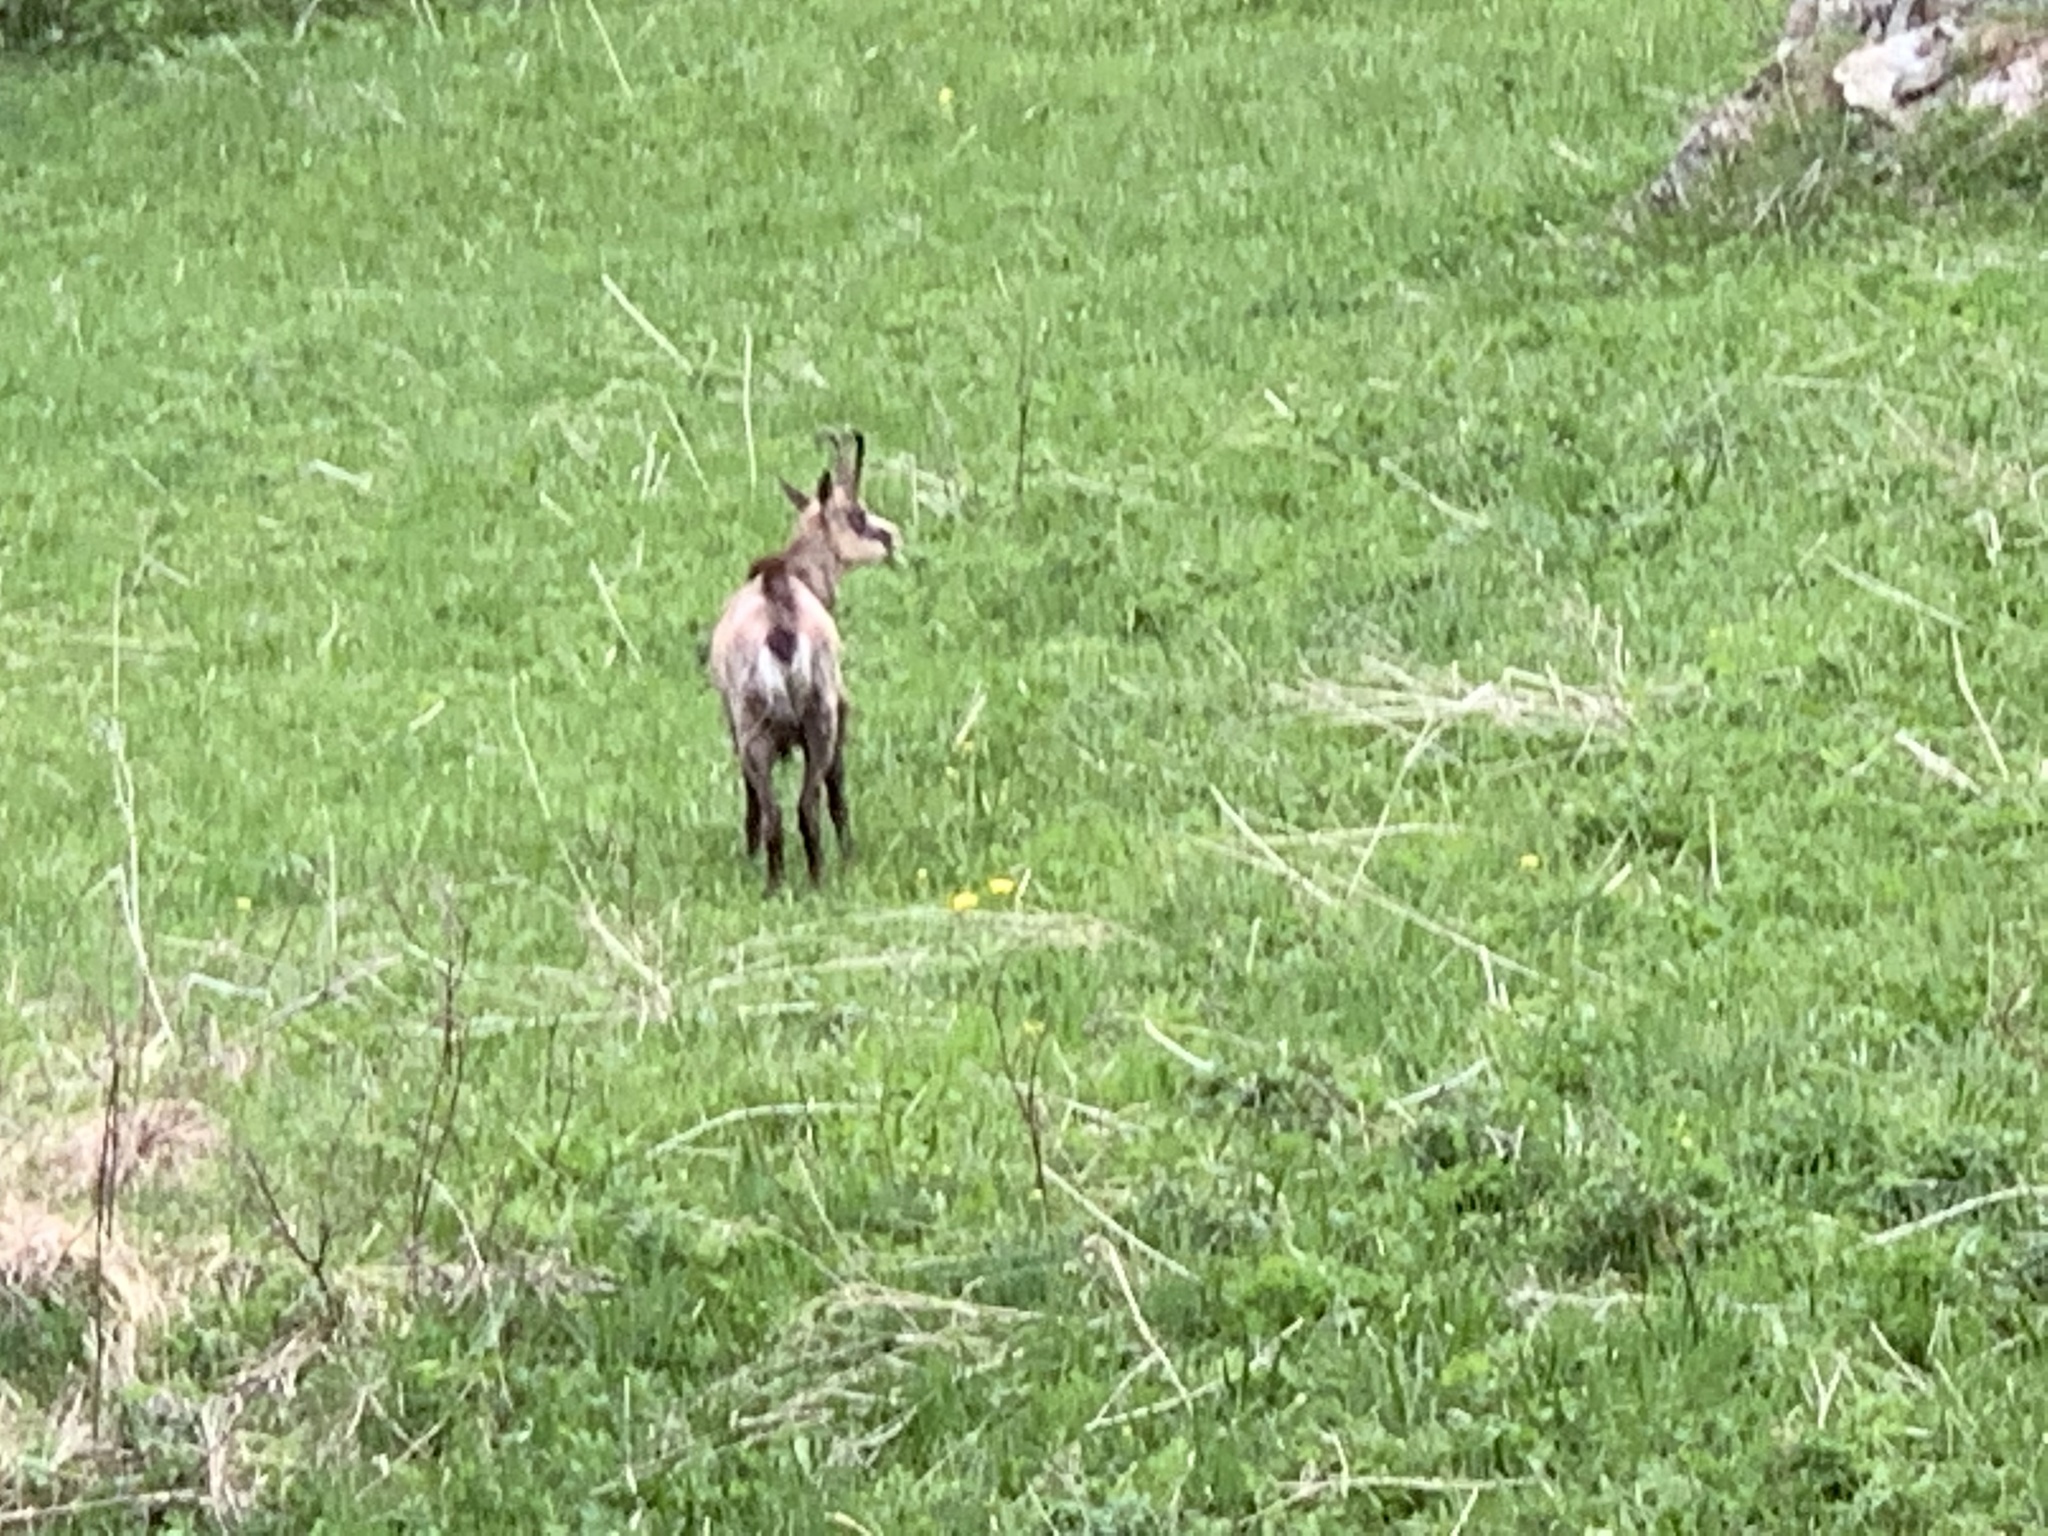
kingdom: Animalia
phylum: Chordata
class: Mammalia
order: Artiodactyla
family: Bovidae
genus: Rupicapra
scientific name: Rupicapra rupicapra
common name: Chamois
